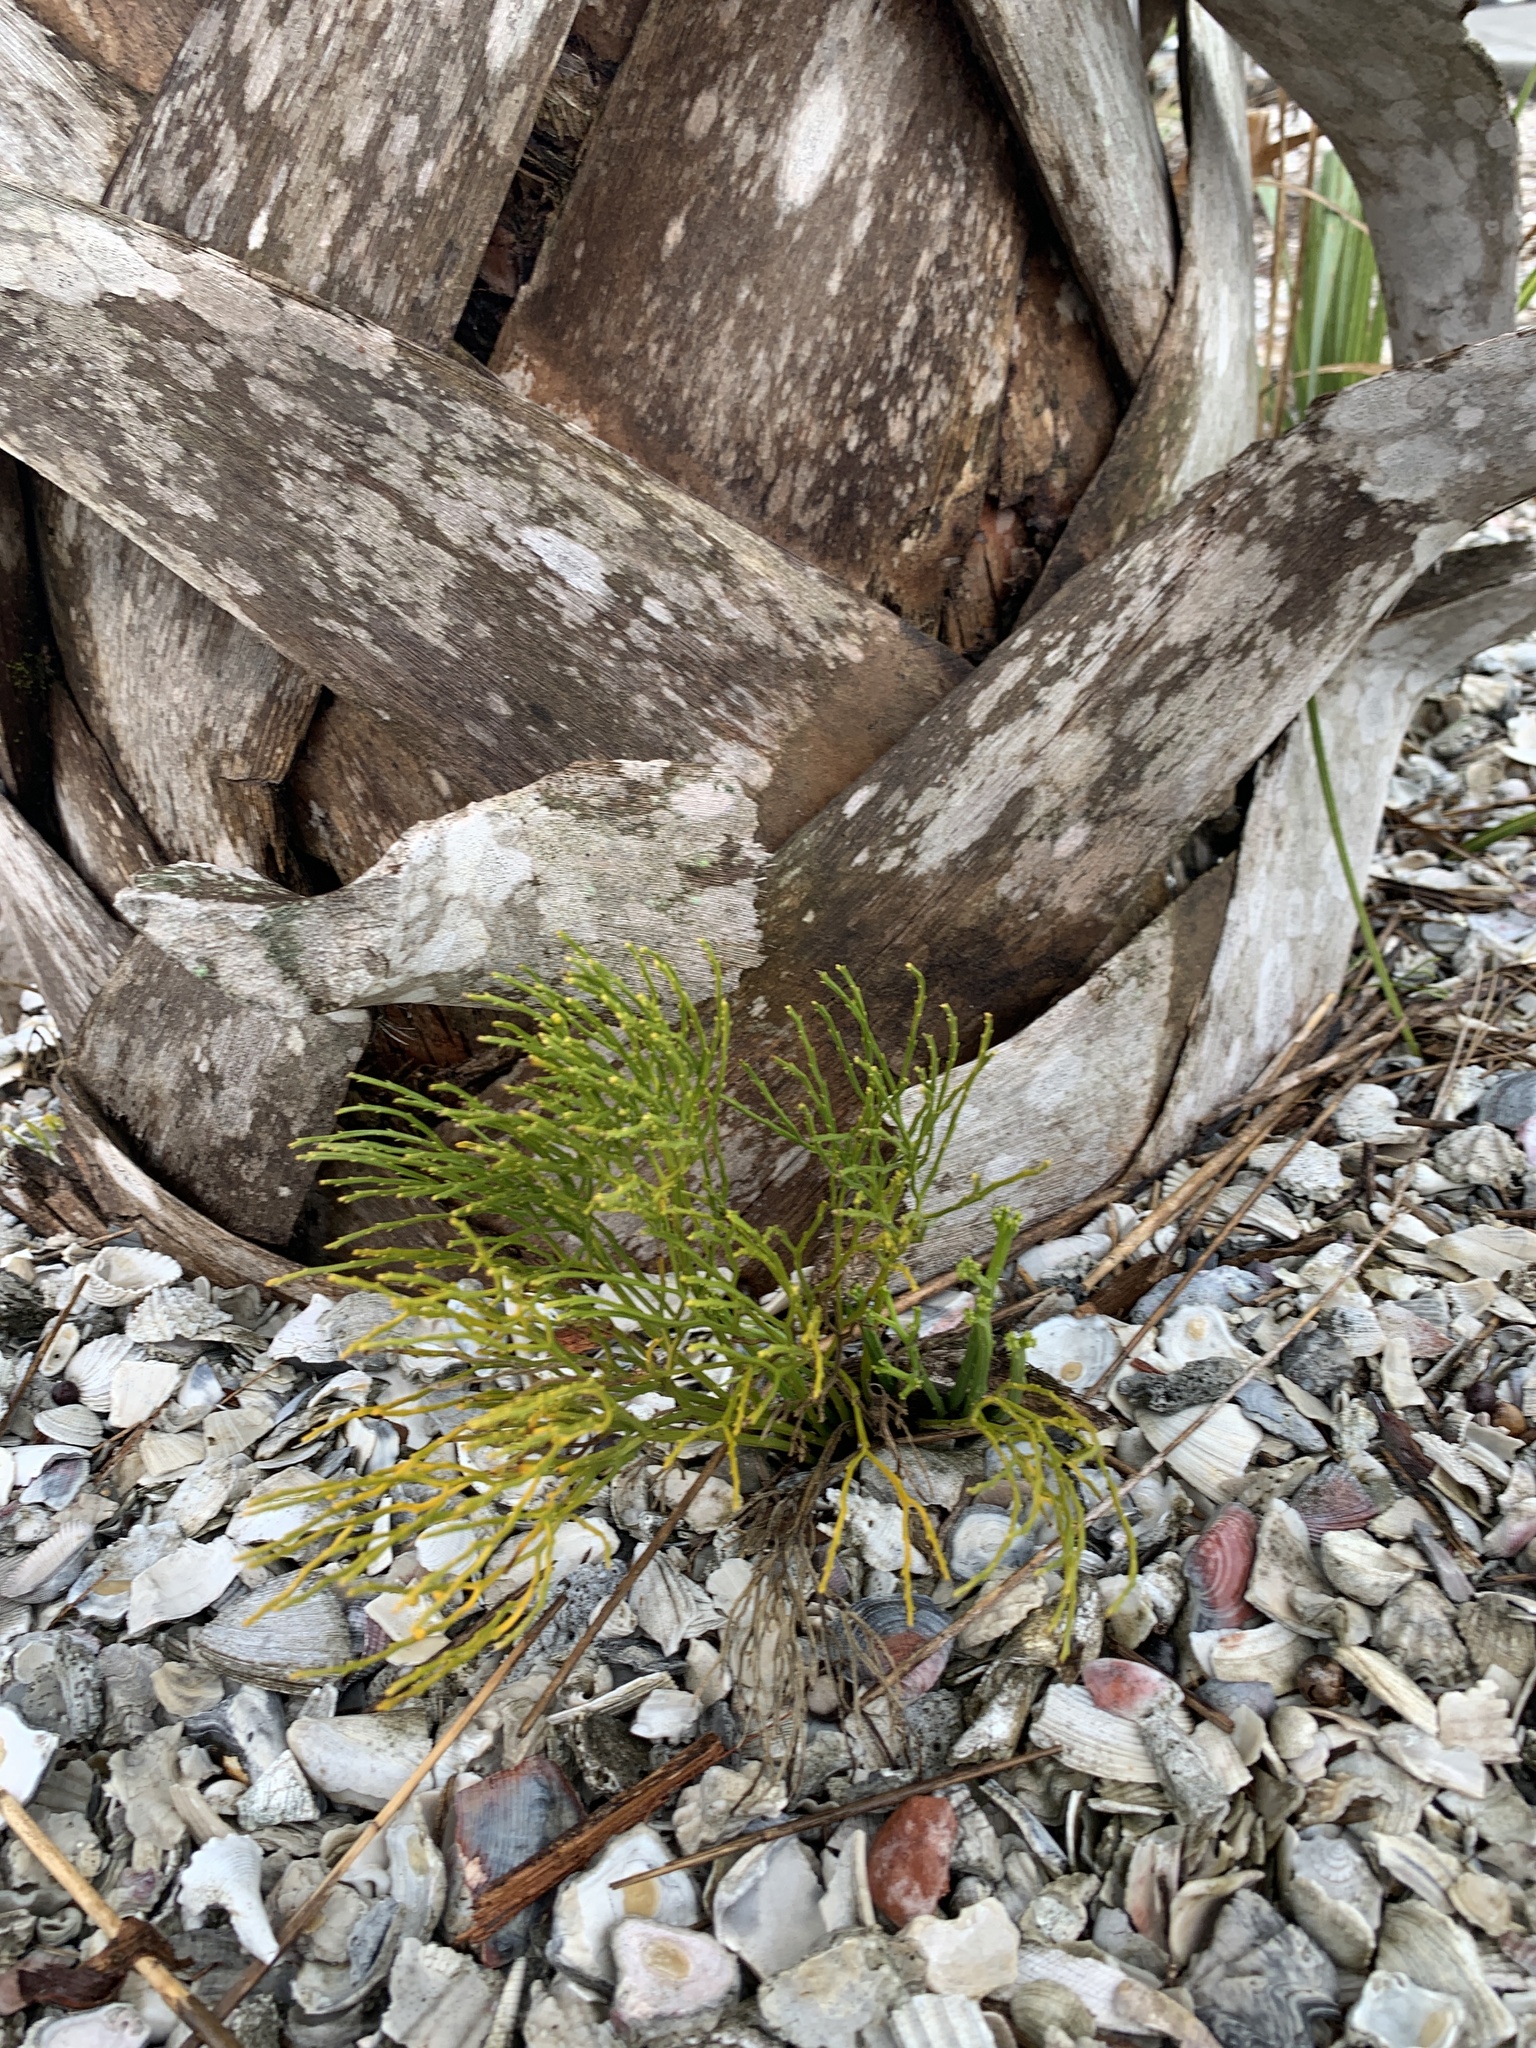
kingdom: Plantae
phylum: Tracheophyta
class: Polypodiopsida
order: Psilotales
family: Psilotaceae
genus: Psilotum
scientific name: Psilotum nudum
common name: Skeleton fork fern
